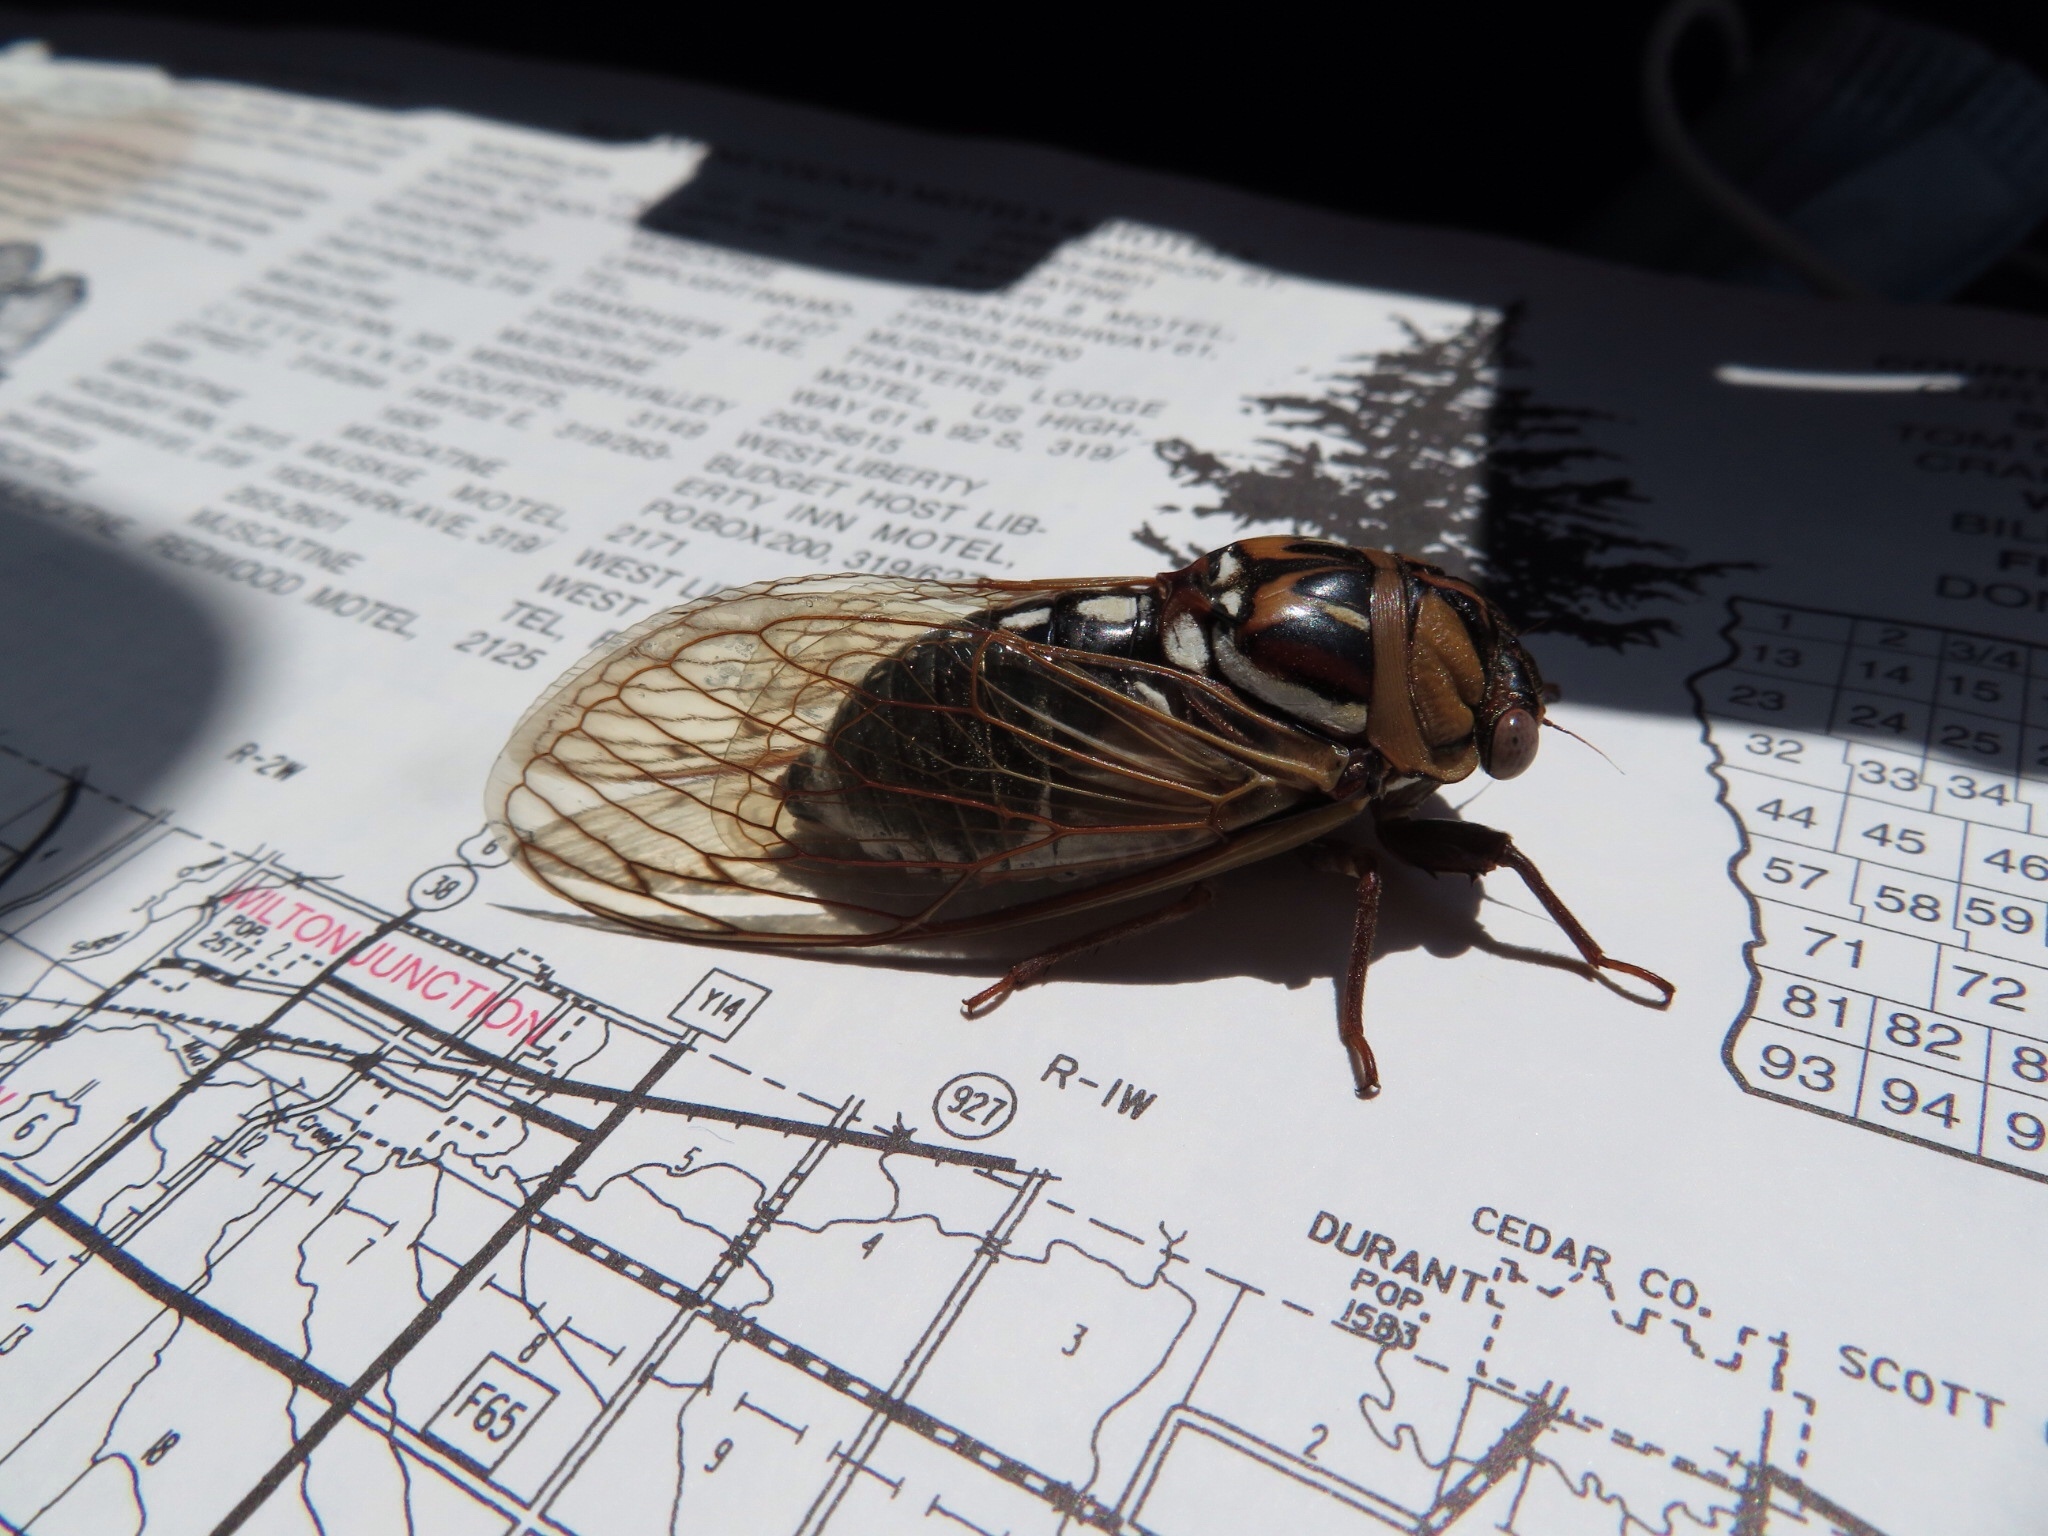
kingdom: Animalia
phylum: Arthropoda
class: Insecta
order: Hemiptera
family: Cicadidae
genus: Megatibicen
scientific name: Megatibicen dorsatus
